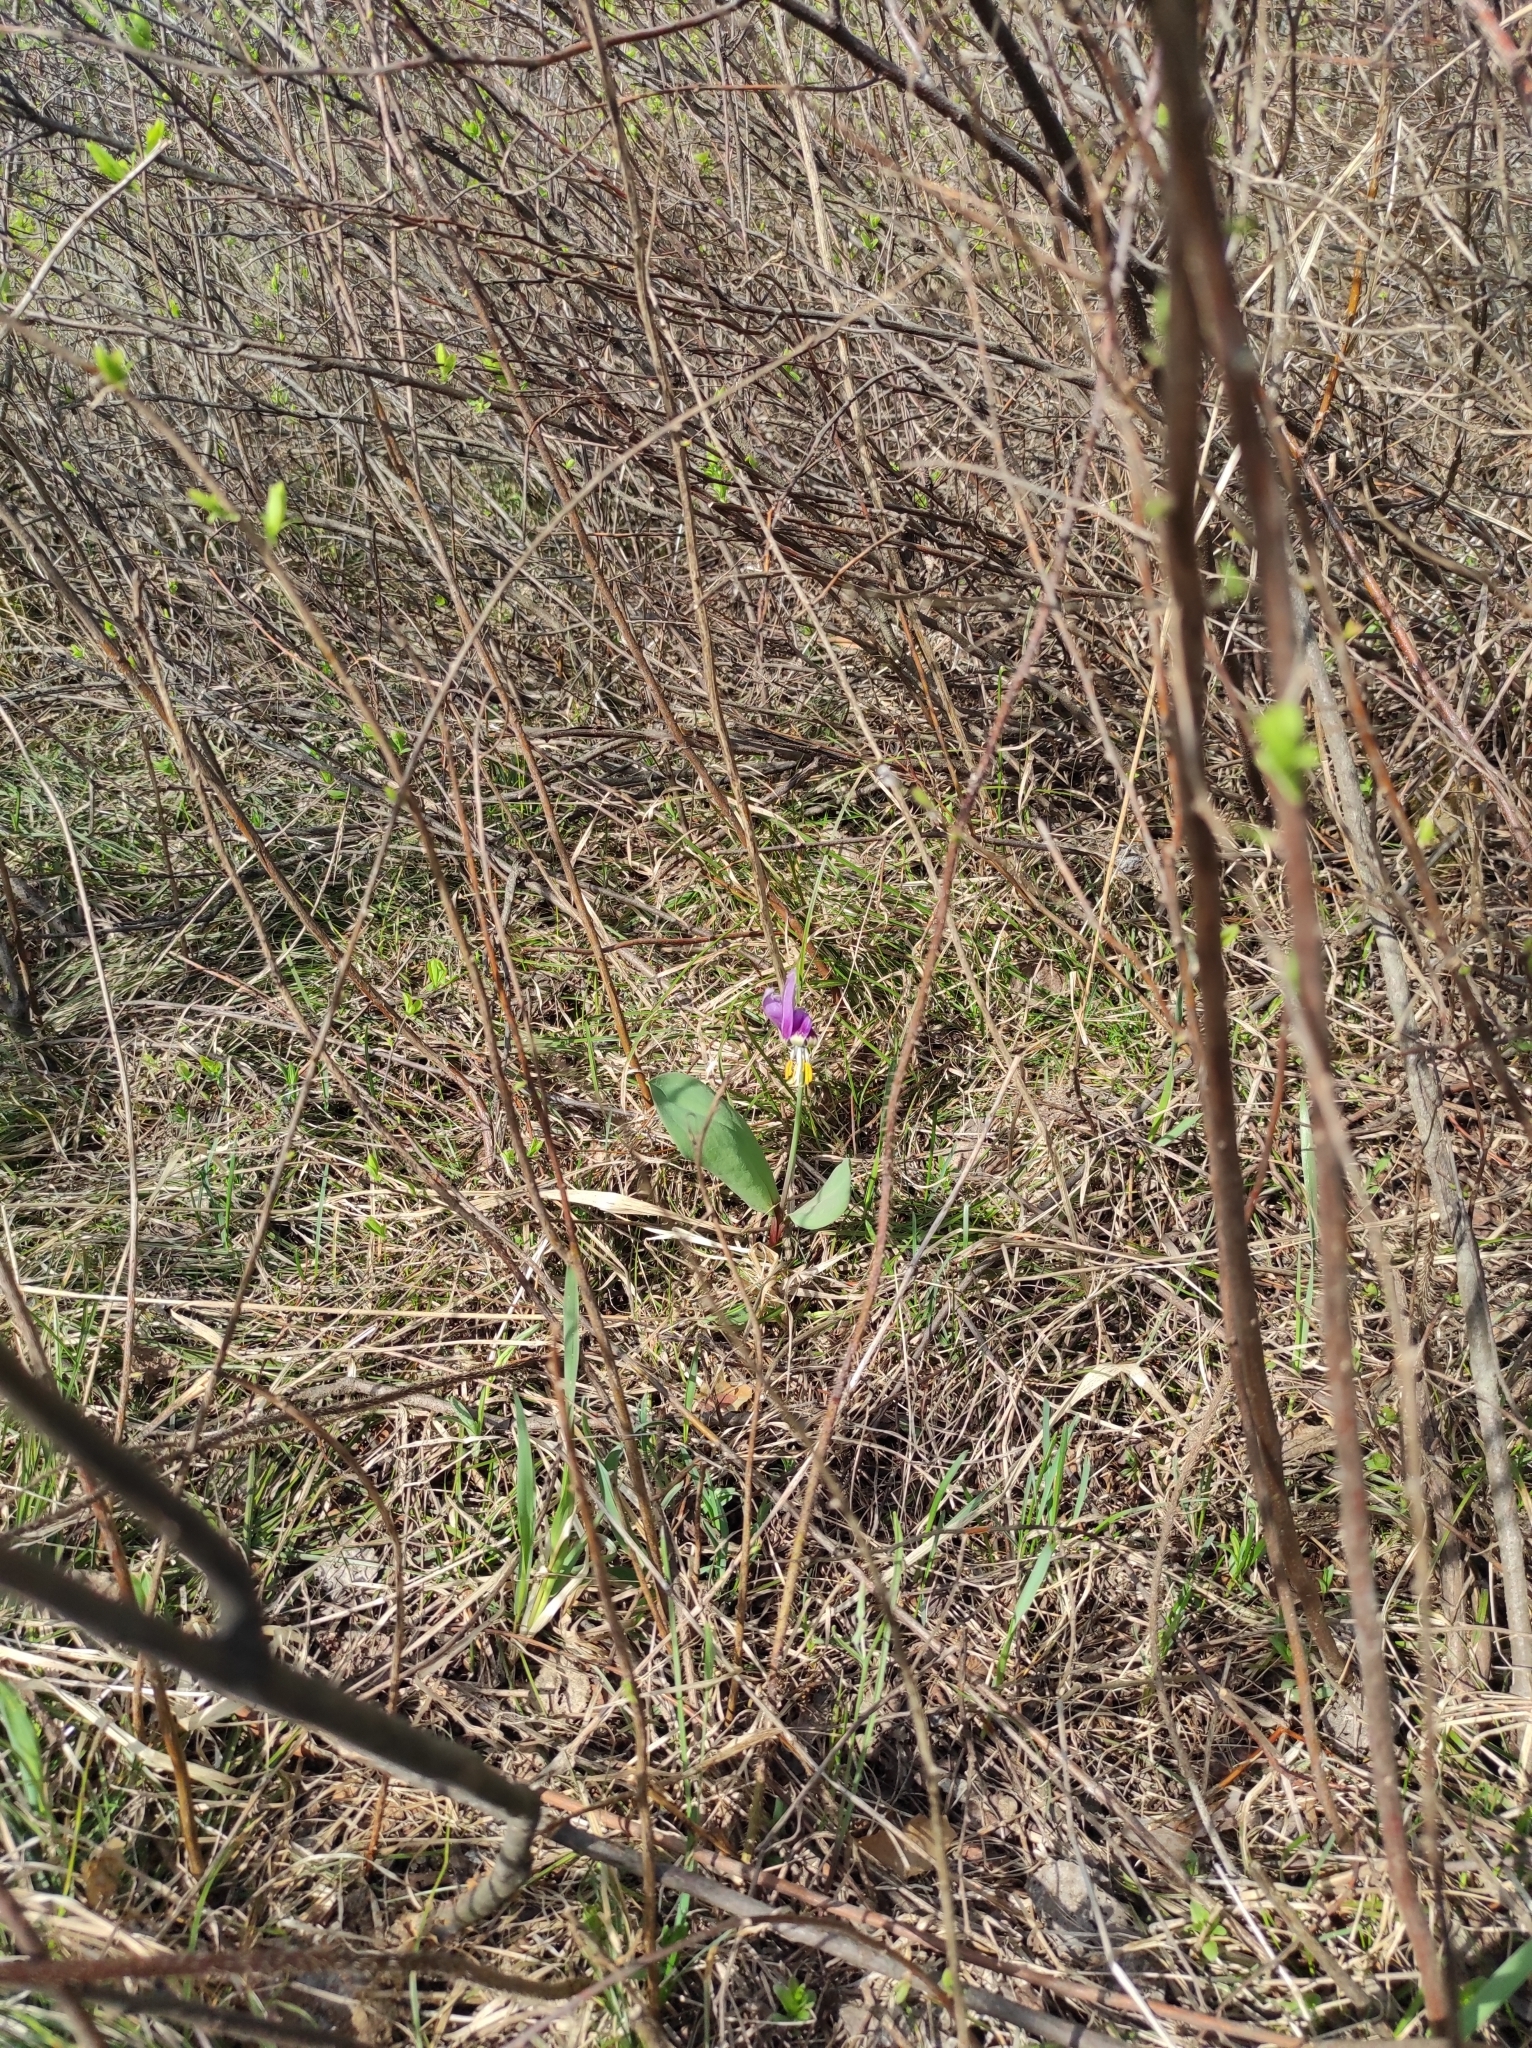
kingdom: Plantae
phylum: Tracheophyta
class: Liliopsida
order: Liliales
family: Liliaceae
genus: Erythronium
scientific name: Erythronium sibiricum
